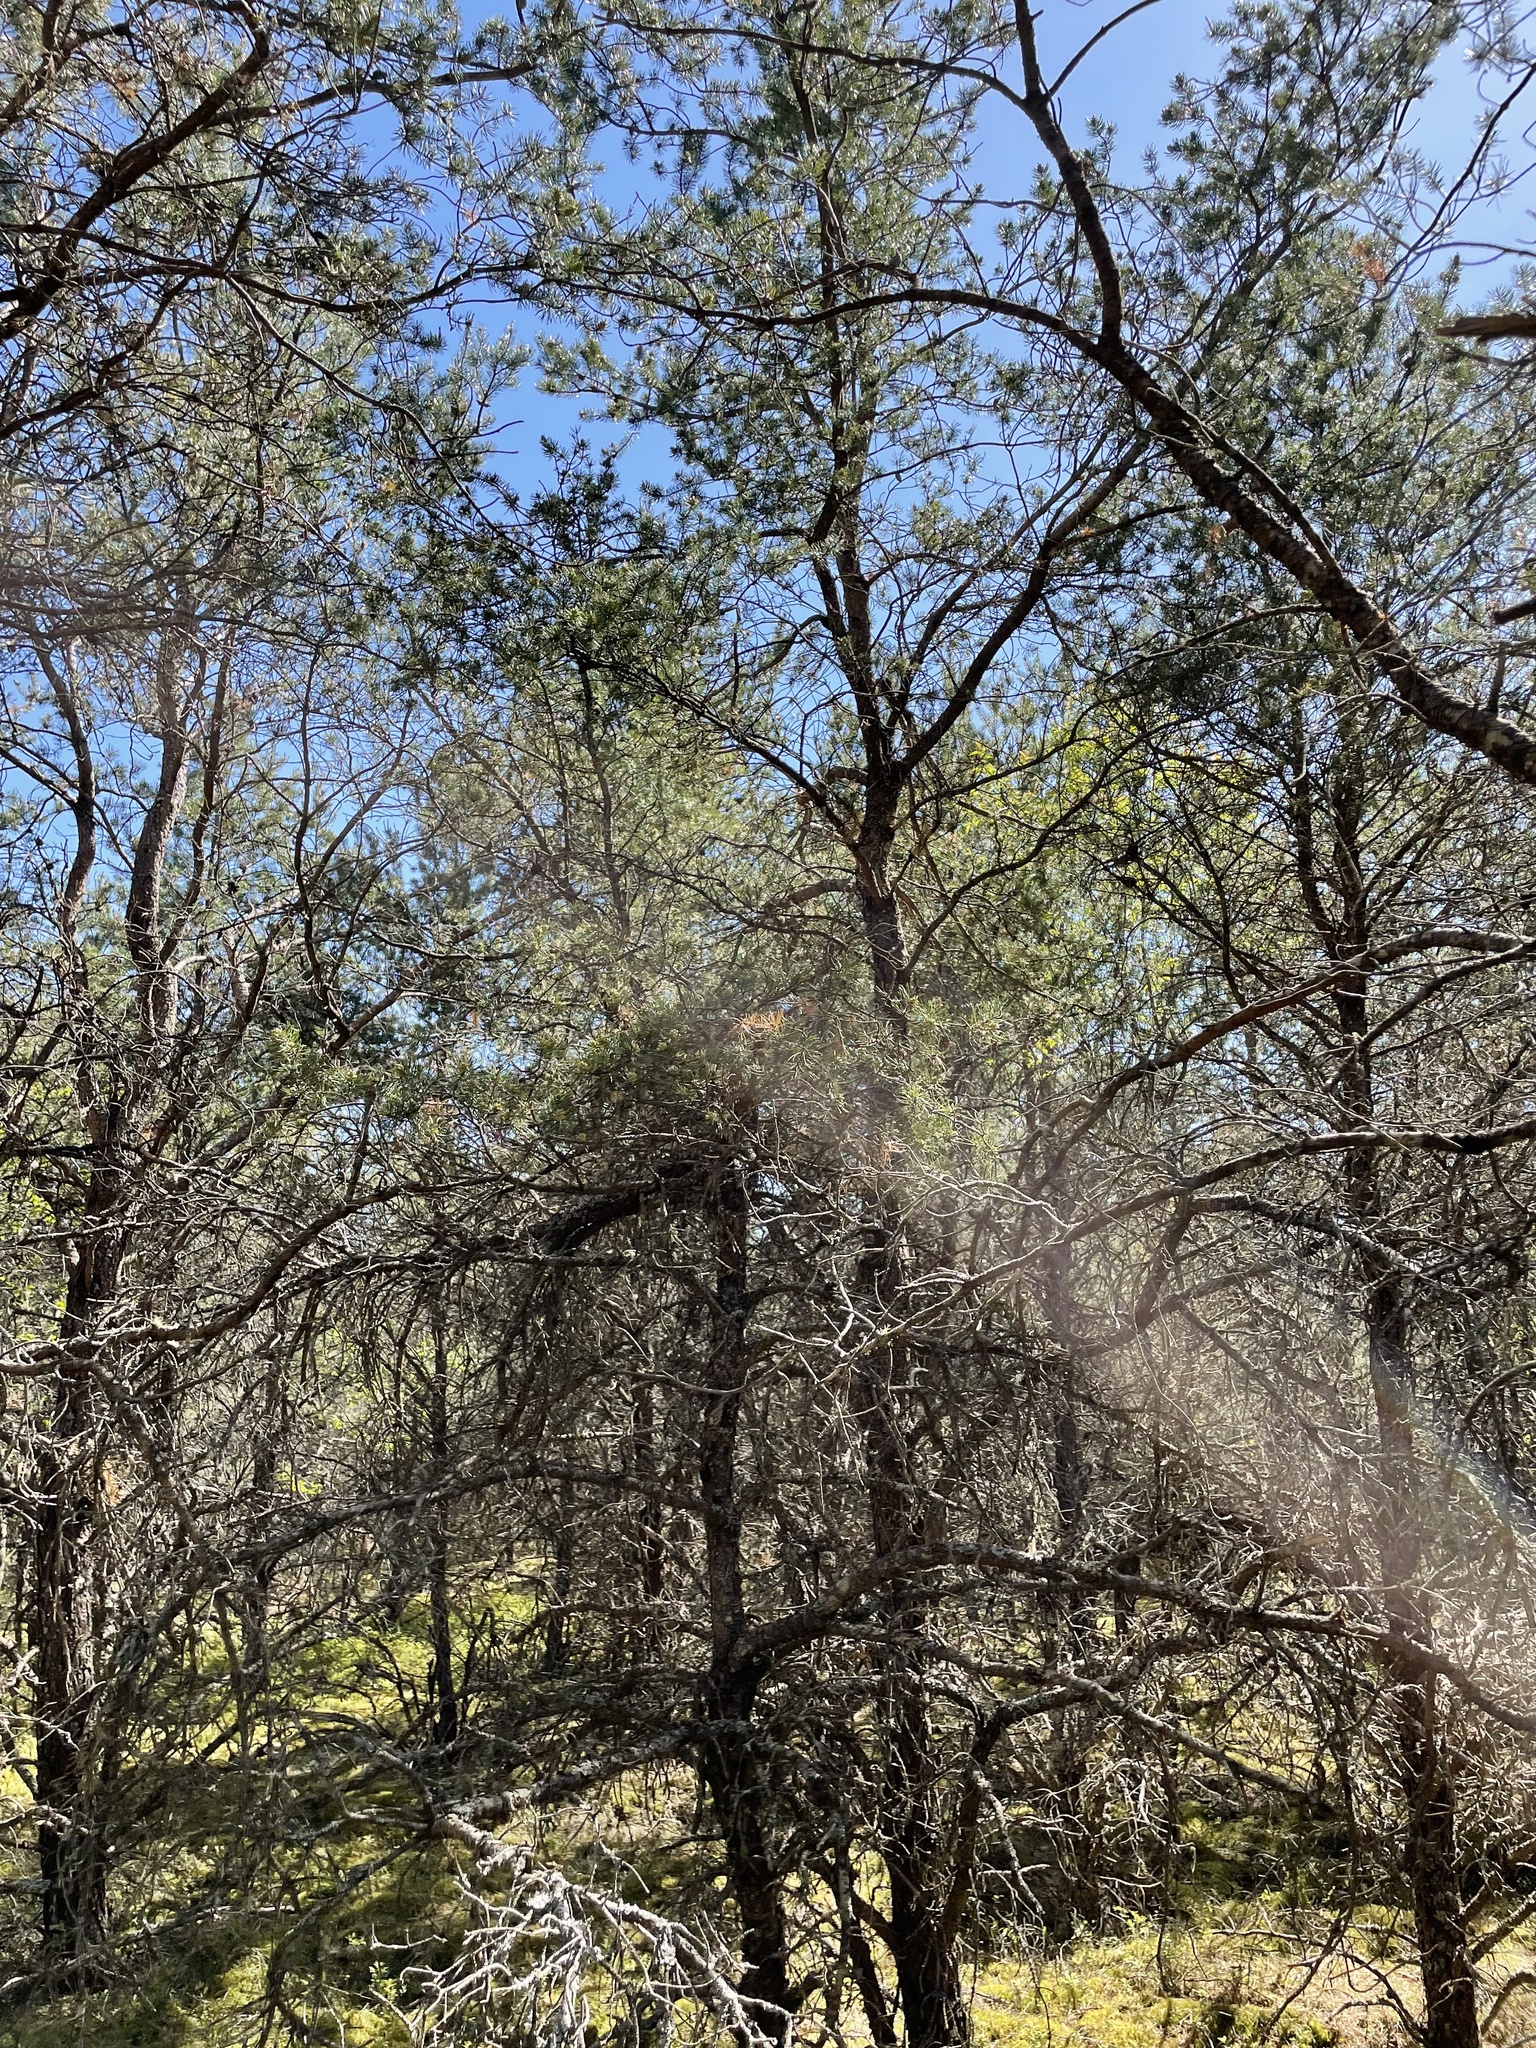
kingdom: Plantae
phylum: Tracheophyta
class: Pinopsida
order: Pinales
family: Pinaceae
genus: Pinus
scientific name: Pinus banksiana
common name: Jack pine
